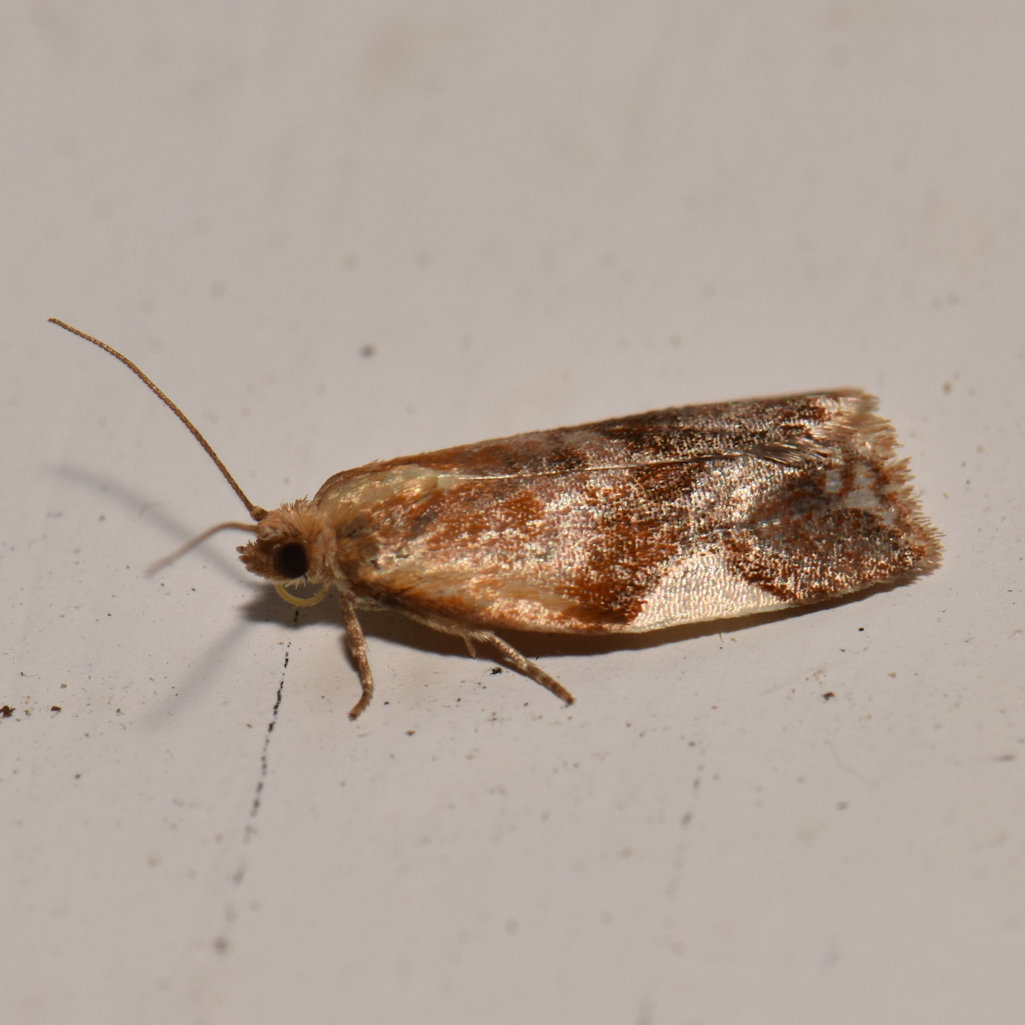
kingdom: Animalia
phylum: Arthropoda
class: Insecta
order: Lepidoptera
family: Tortricidae
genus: Clepsis
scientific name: Clepsis persicana
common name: White triangle tortrix
